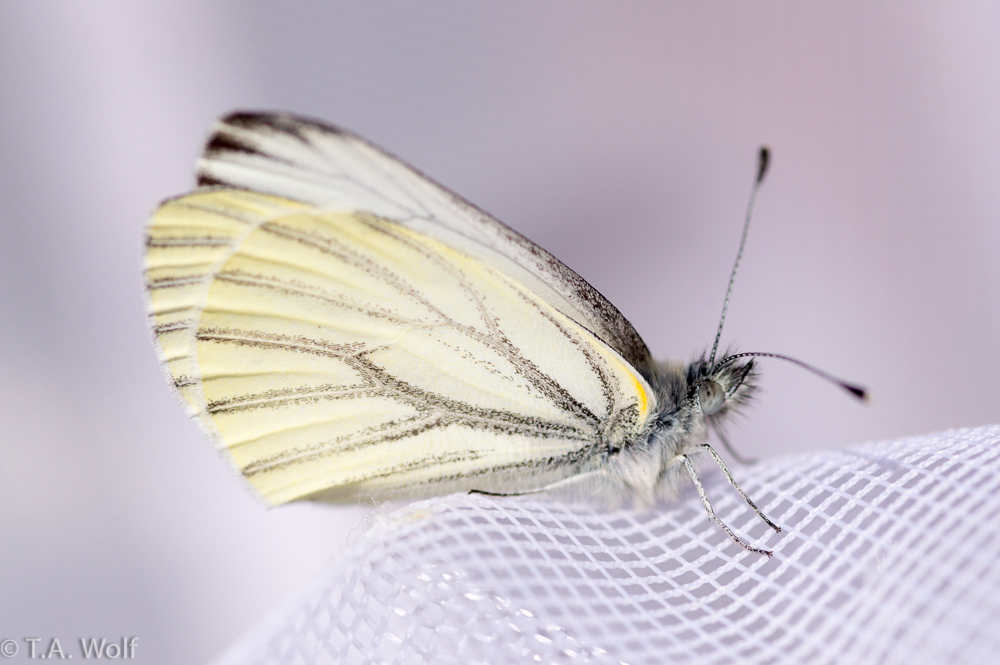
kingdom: Animalia
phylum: Arthropoda
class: Insecta
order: Lepidoptera
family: Pieridae
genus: Pieris
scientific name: Pieris marginalis
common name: Margined white
